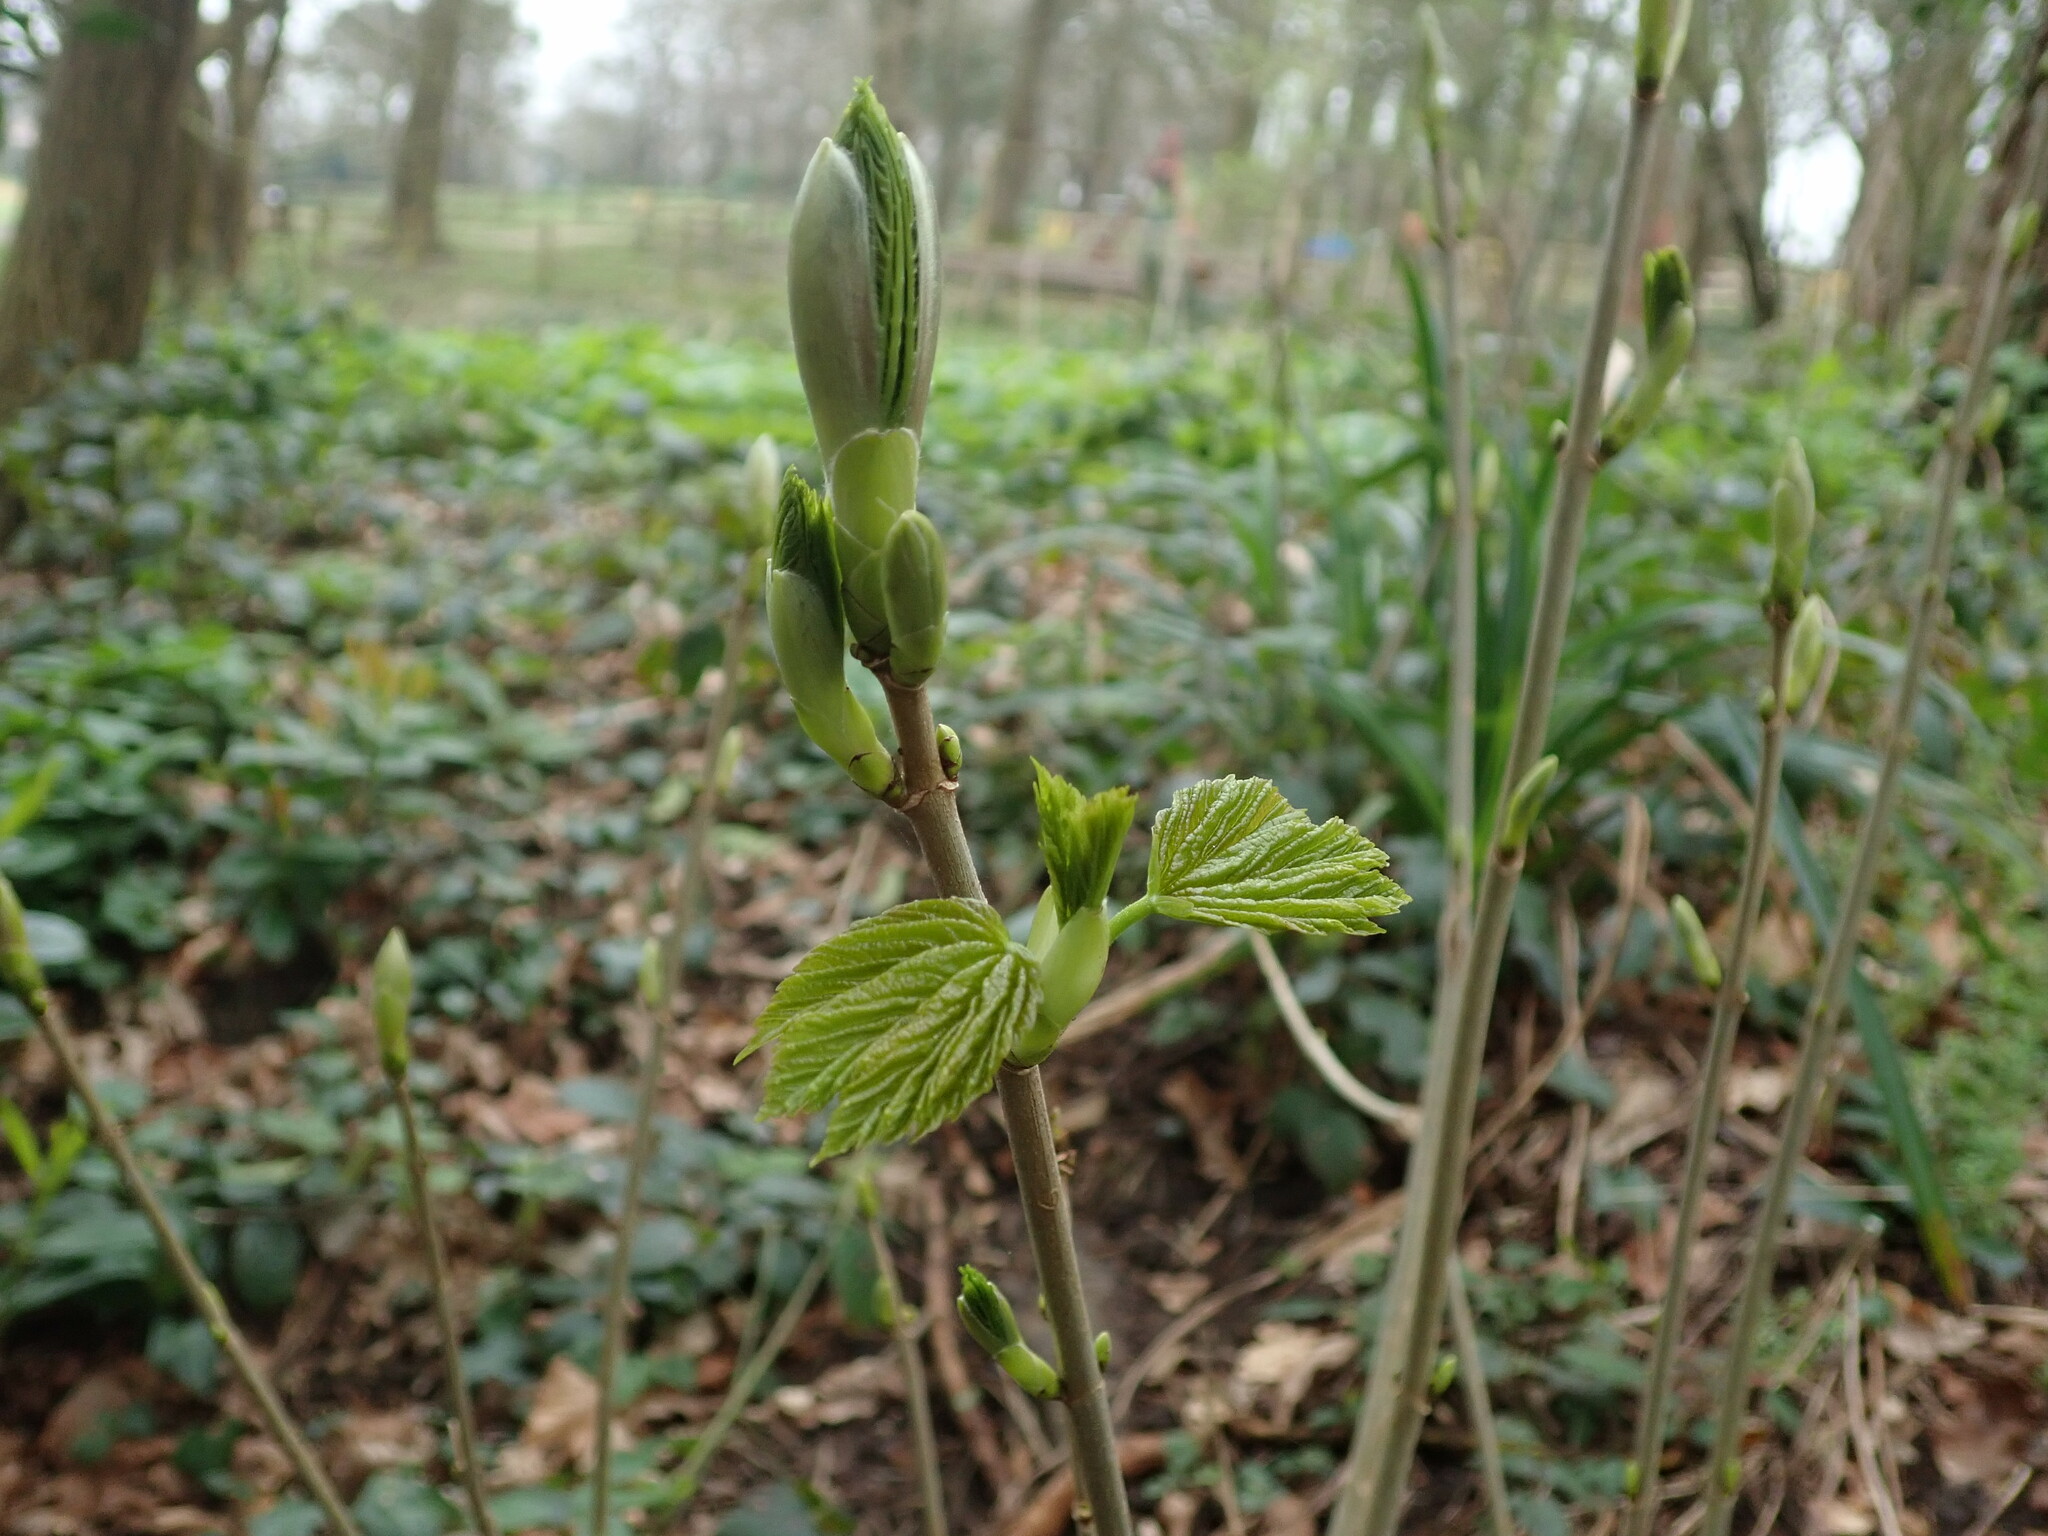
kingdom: Plantae
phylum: Tracheophyta
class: Magnoliopsida
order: Sapindales
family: Sapindaceae
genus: Acer
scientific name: Acer pseudoplatanus
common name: Sycamore
